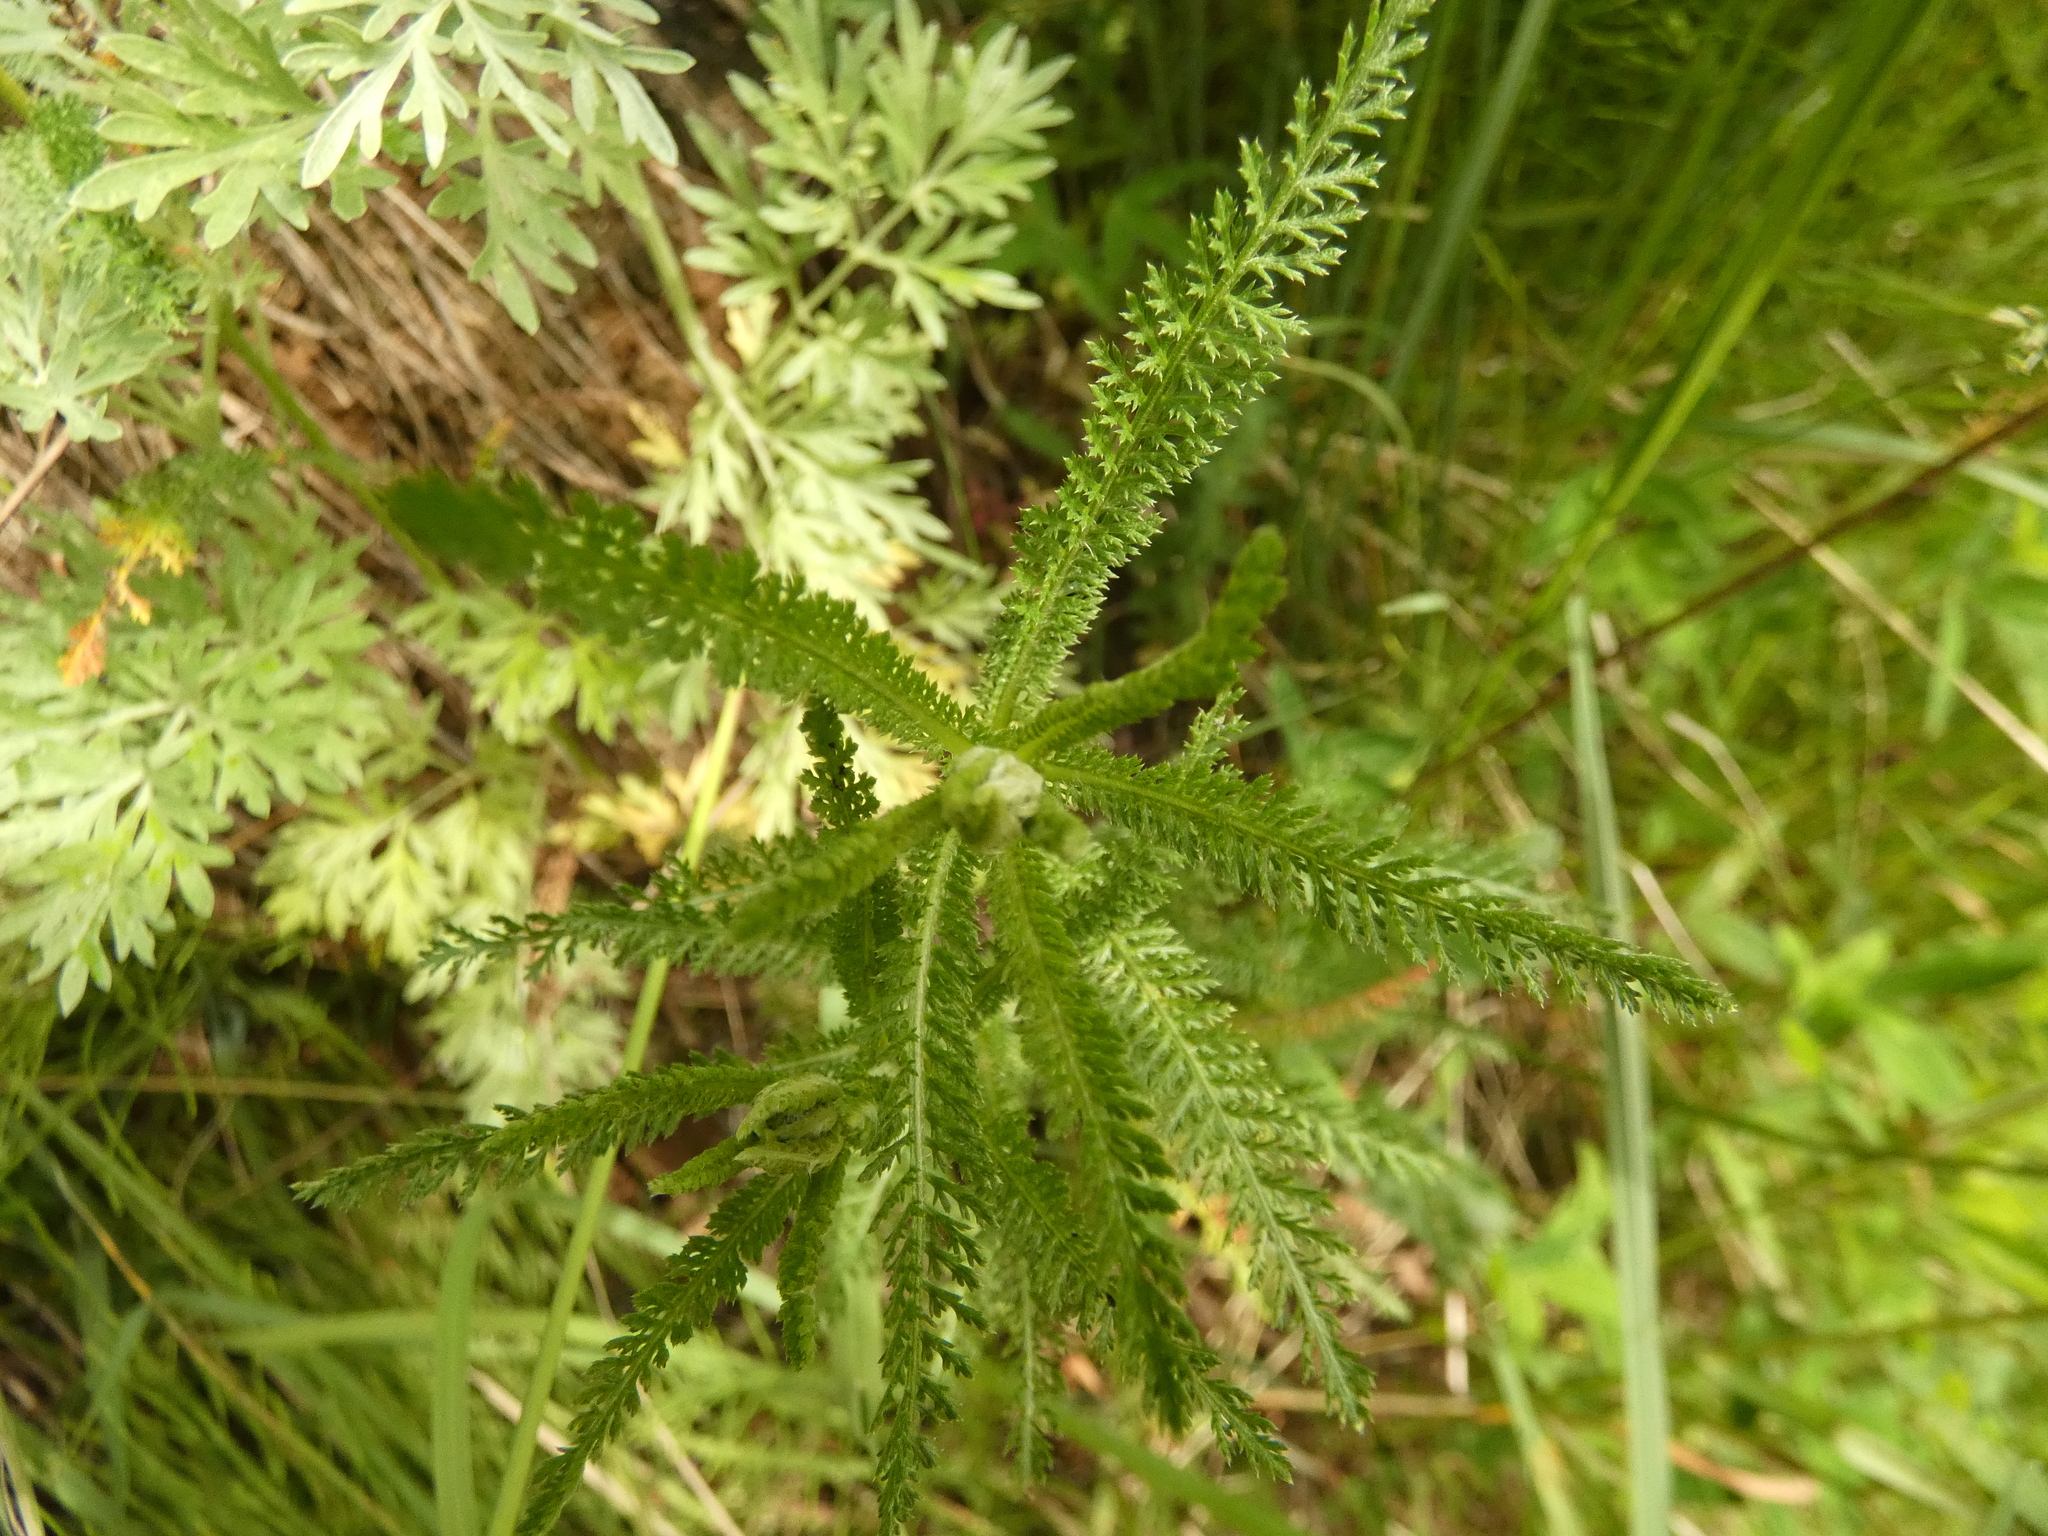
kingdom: Plantae
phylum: Tracheophyta
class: Magnoliopsida
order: Asterales
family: Asteraceae
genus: Achillea
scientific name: Achillea millefolium
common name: Yarrow
